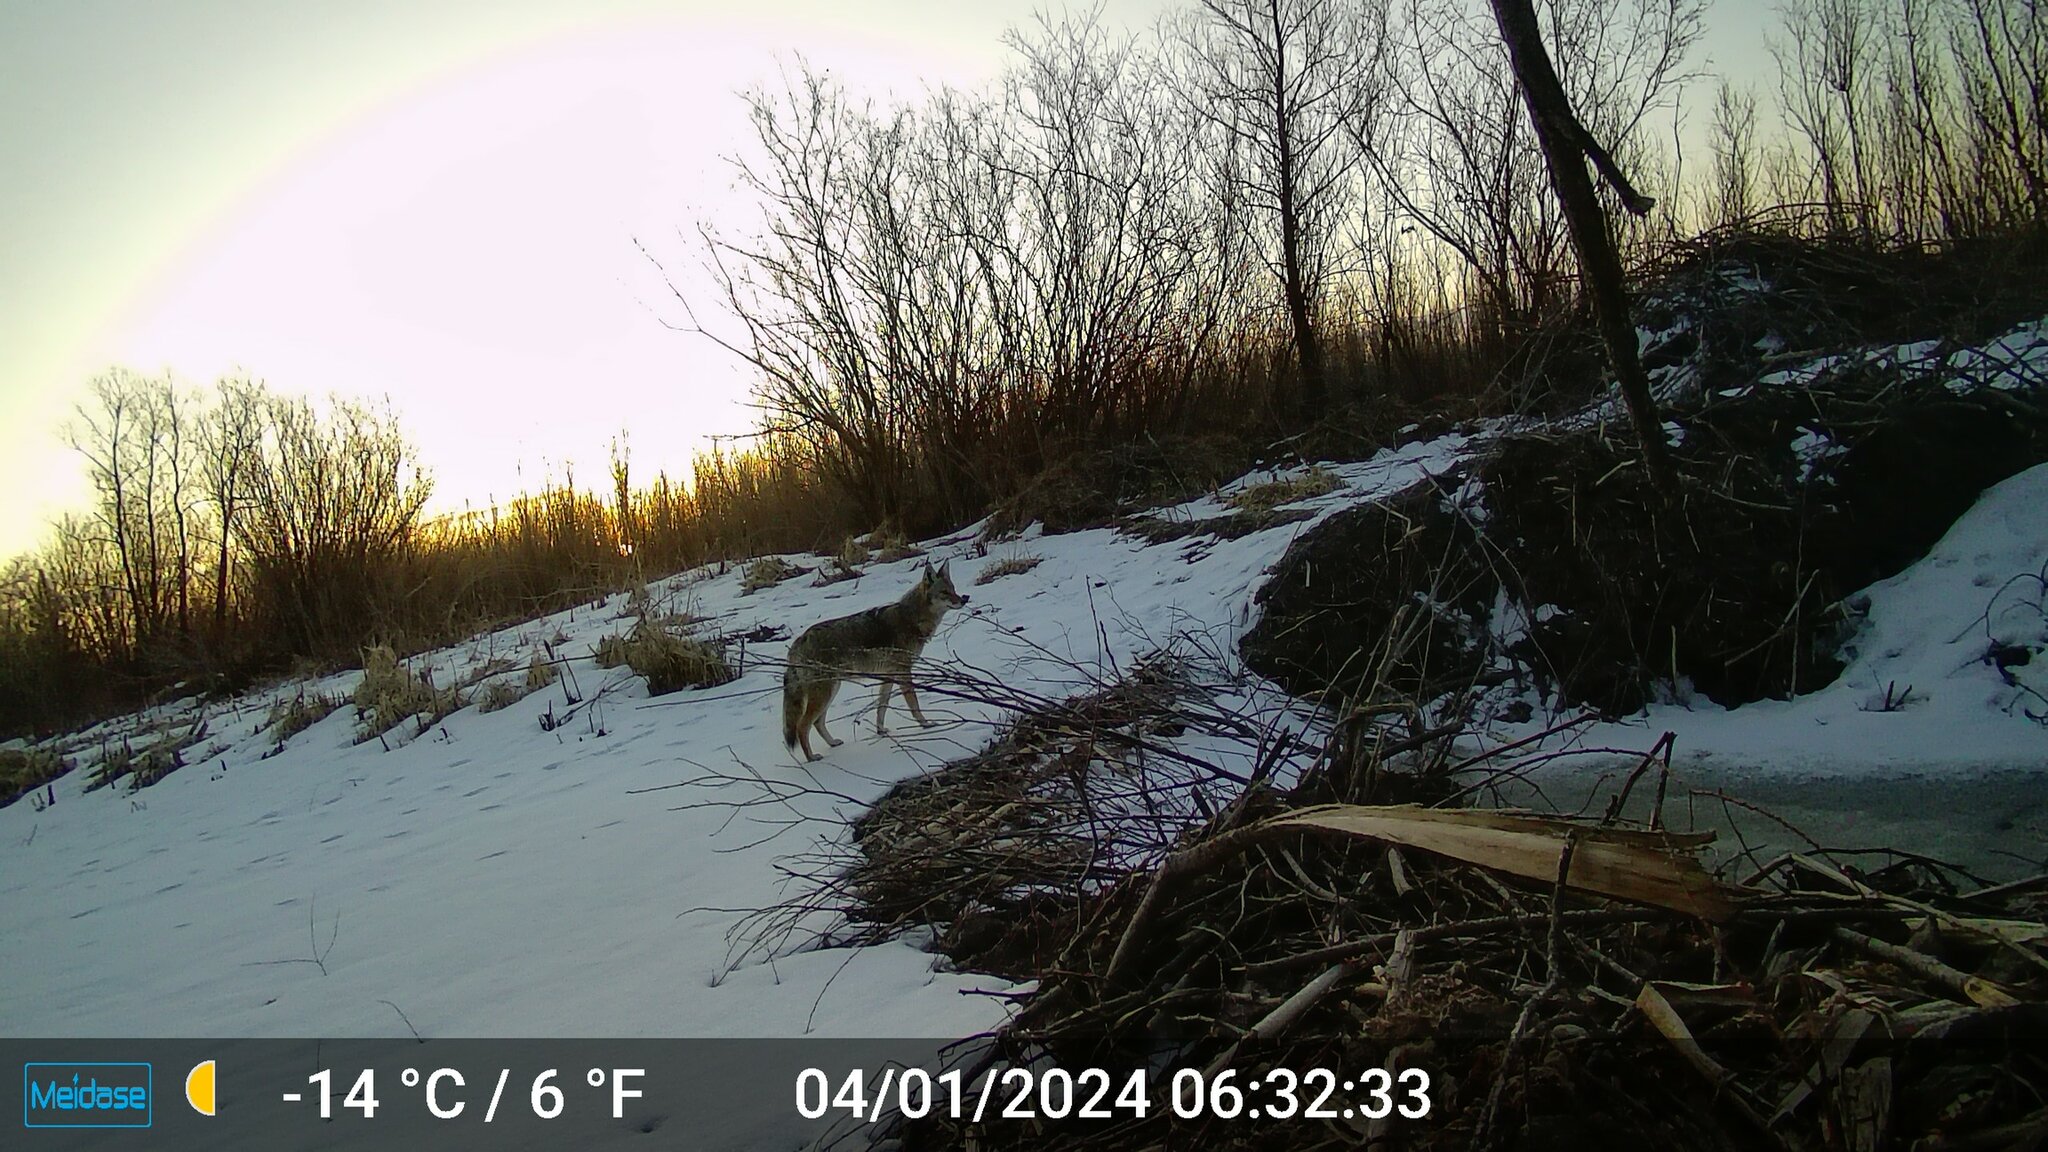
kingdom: Animalia
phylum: Chordata
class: Mammalia
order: Carnivora
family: Canidae
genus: Canis
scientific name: Canis latrans
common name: Coyote
